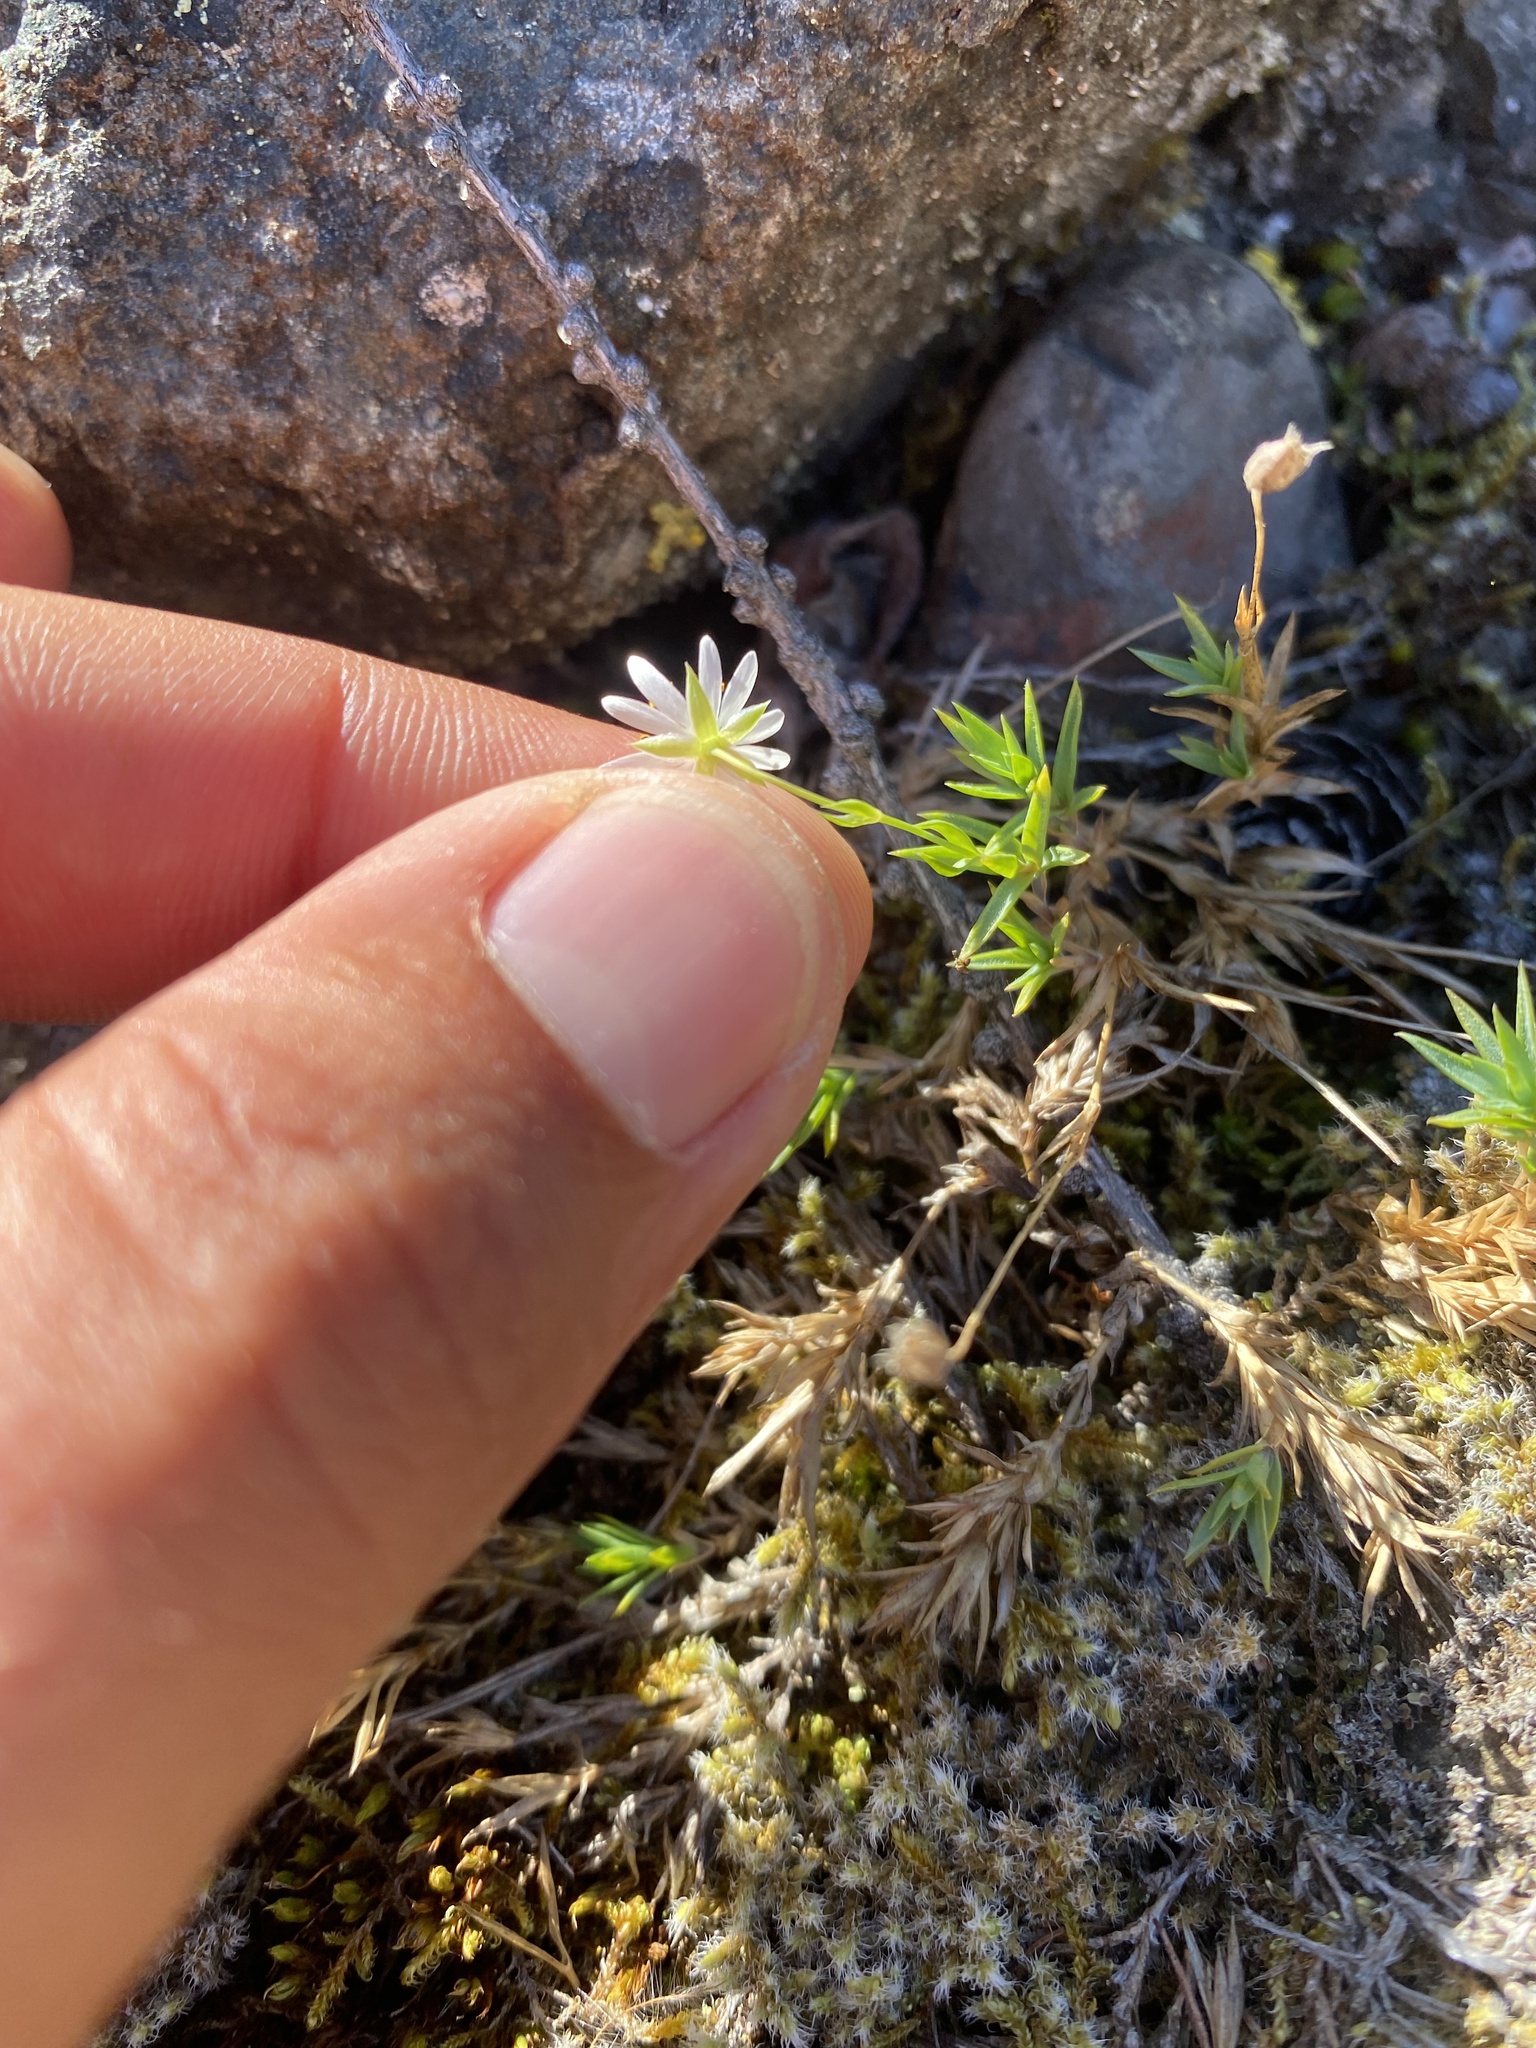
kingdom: Plantae
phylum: Tracheophyta
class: Magnoliopsida
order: Caryophyllales
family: Caryophyllaceae
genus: Stellaria
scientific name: Stellaria fischeriana
